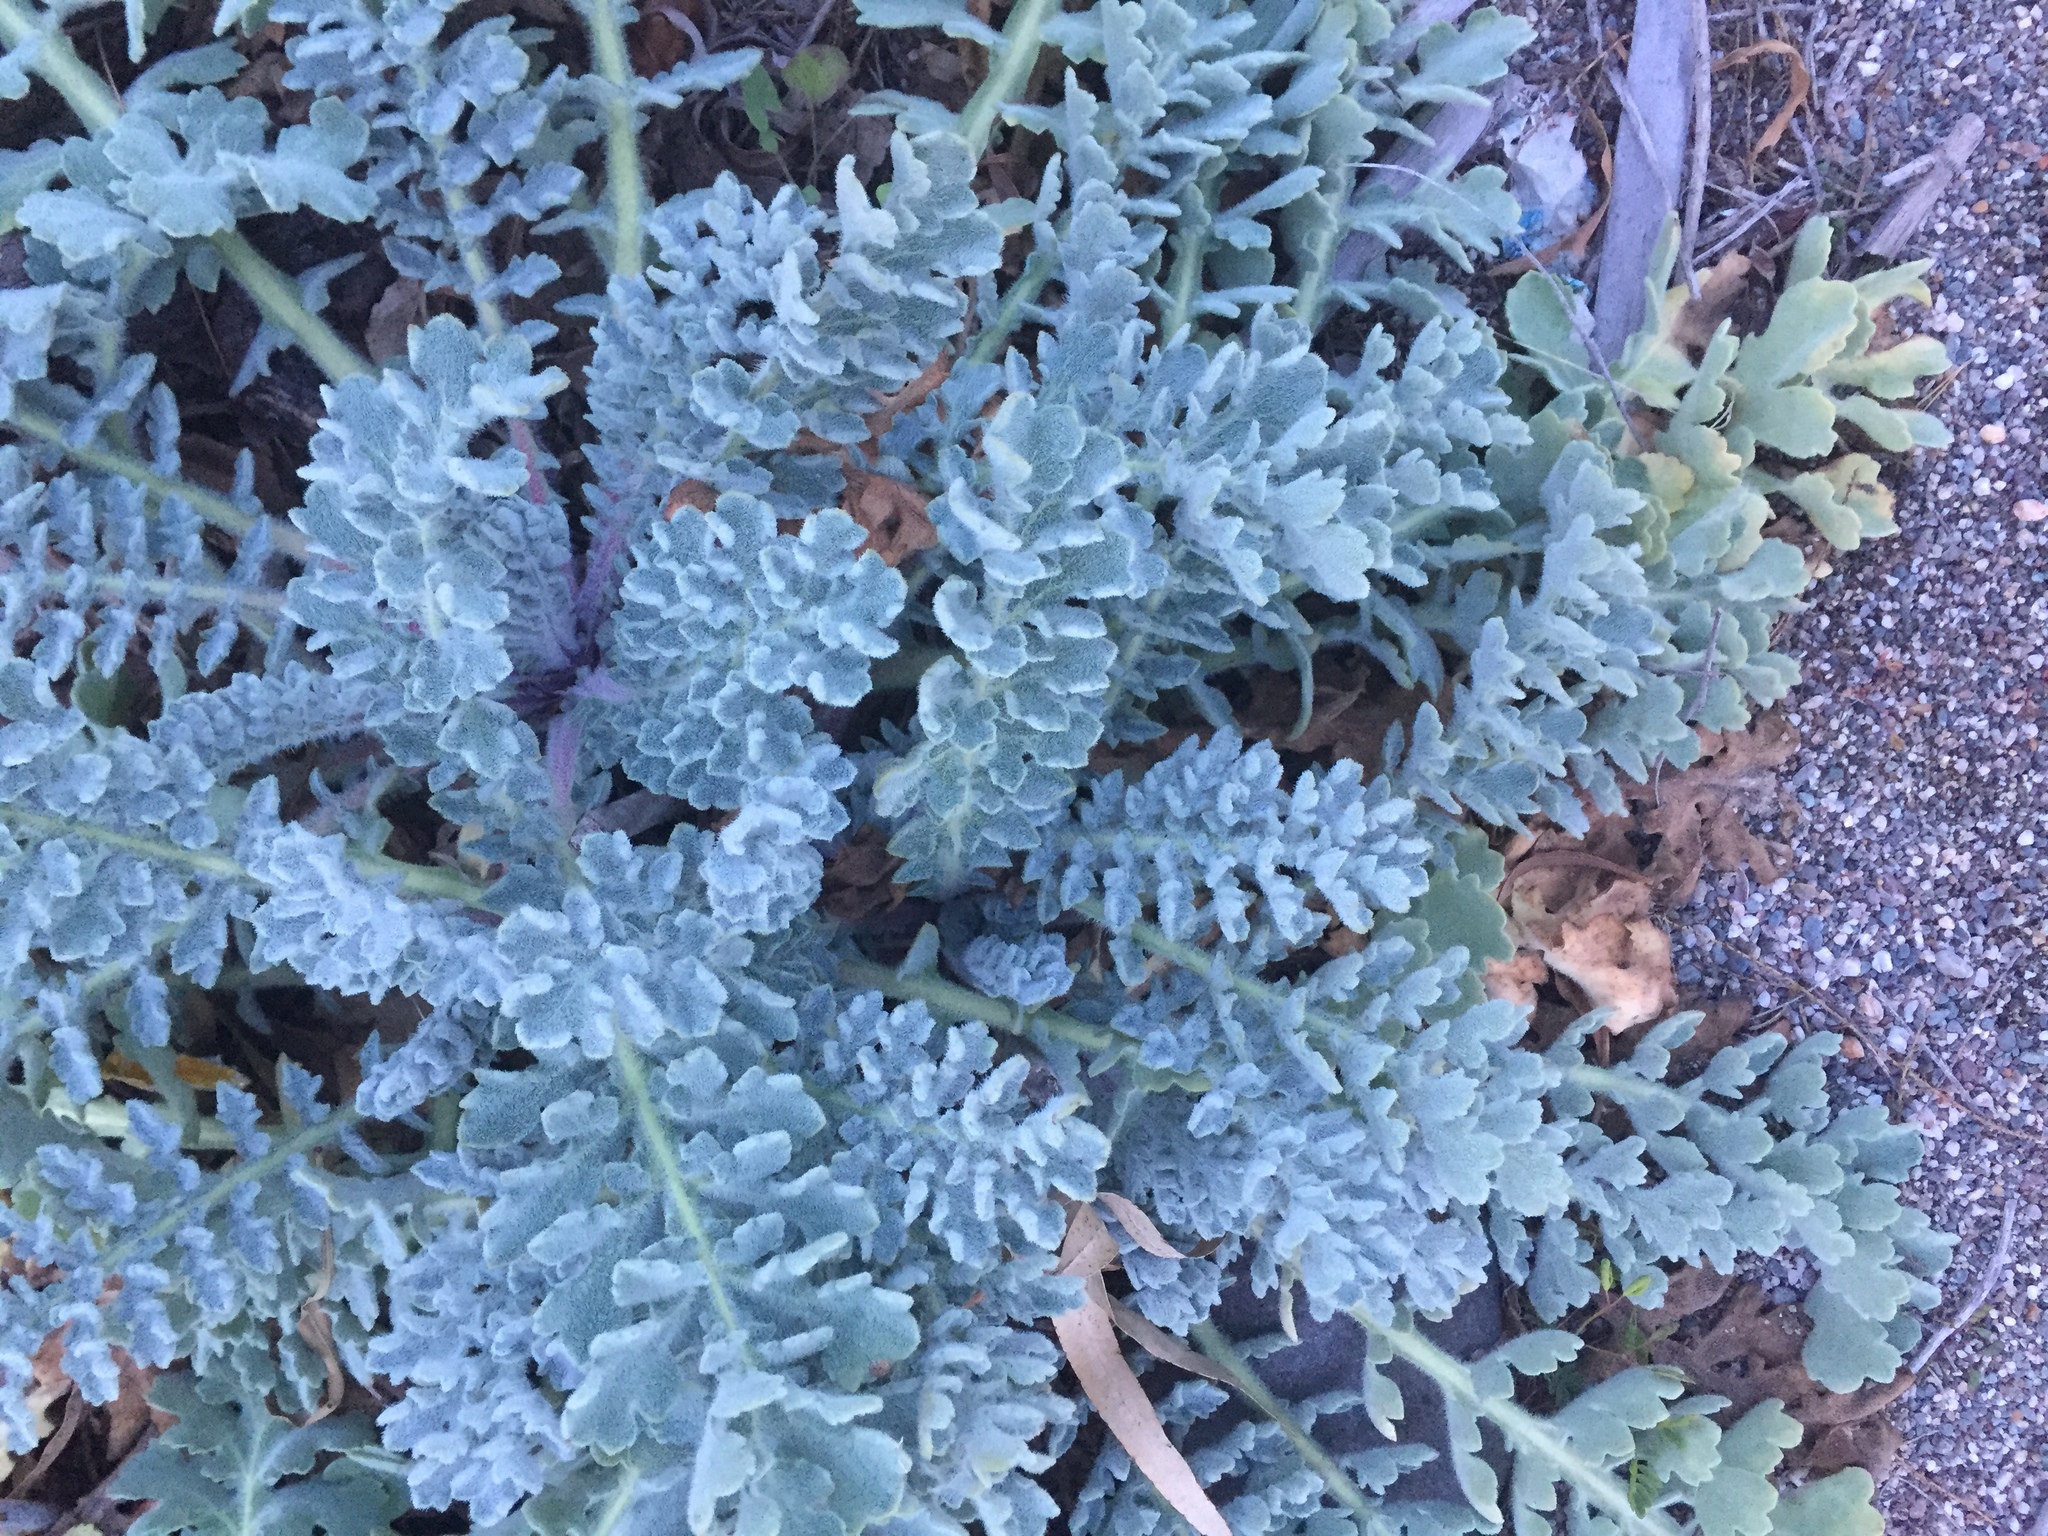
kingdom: Plantae
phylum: Tracheophyta
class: Magnoliopsida
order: Ranunculales
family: Papaveraceae
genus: Glaucium
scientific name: Glaucium flavum
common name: Yellow horned-poppy
